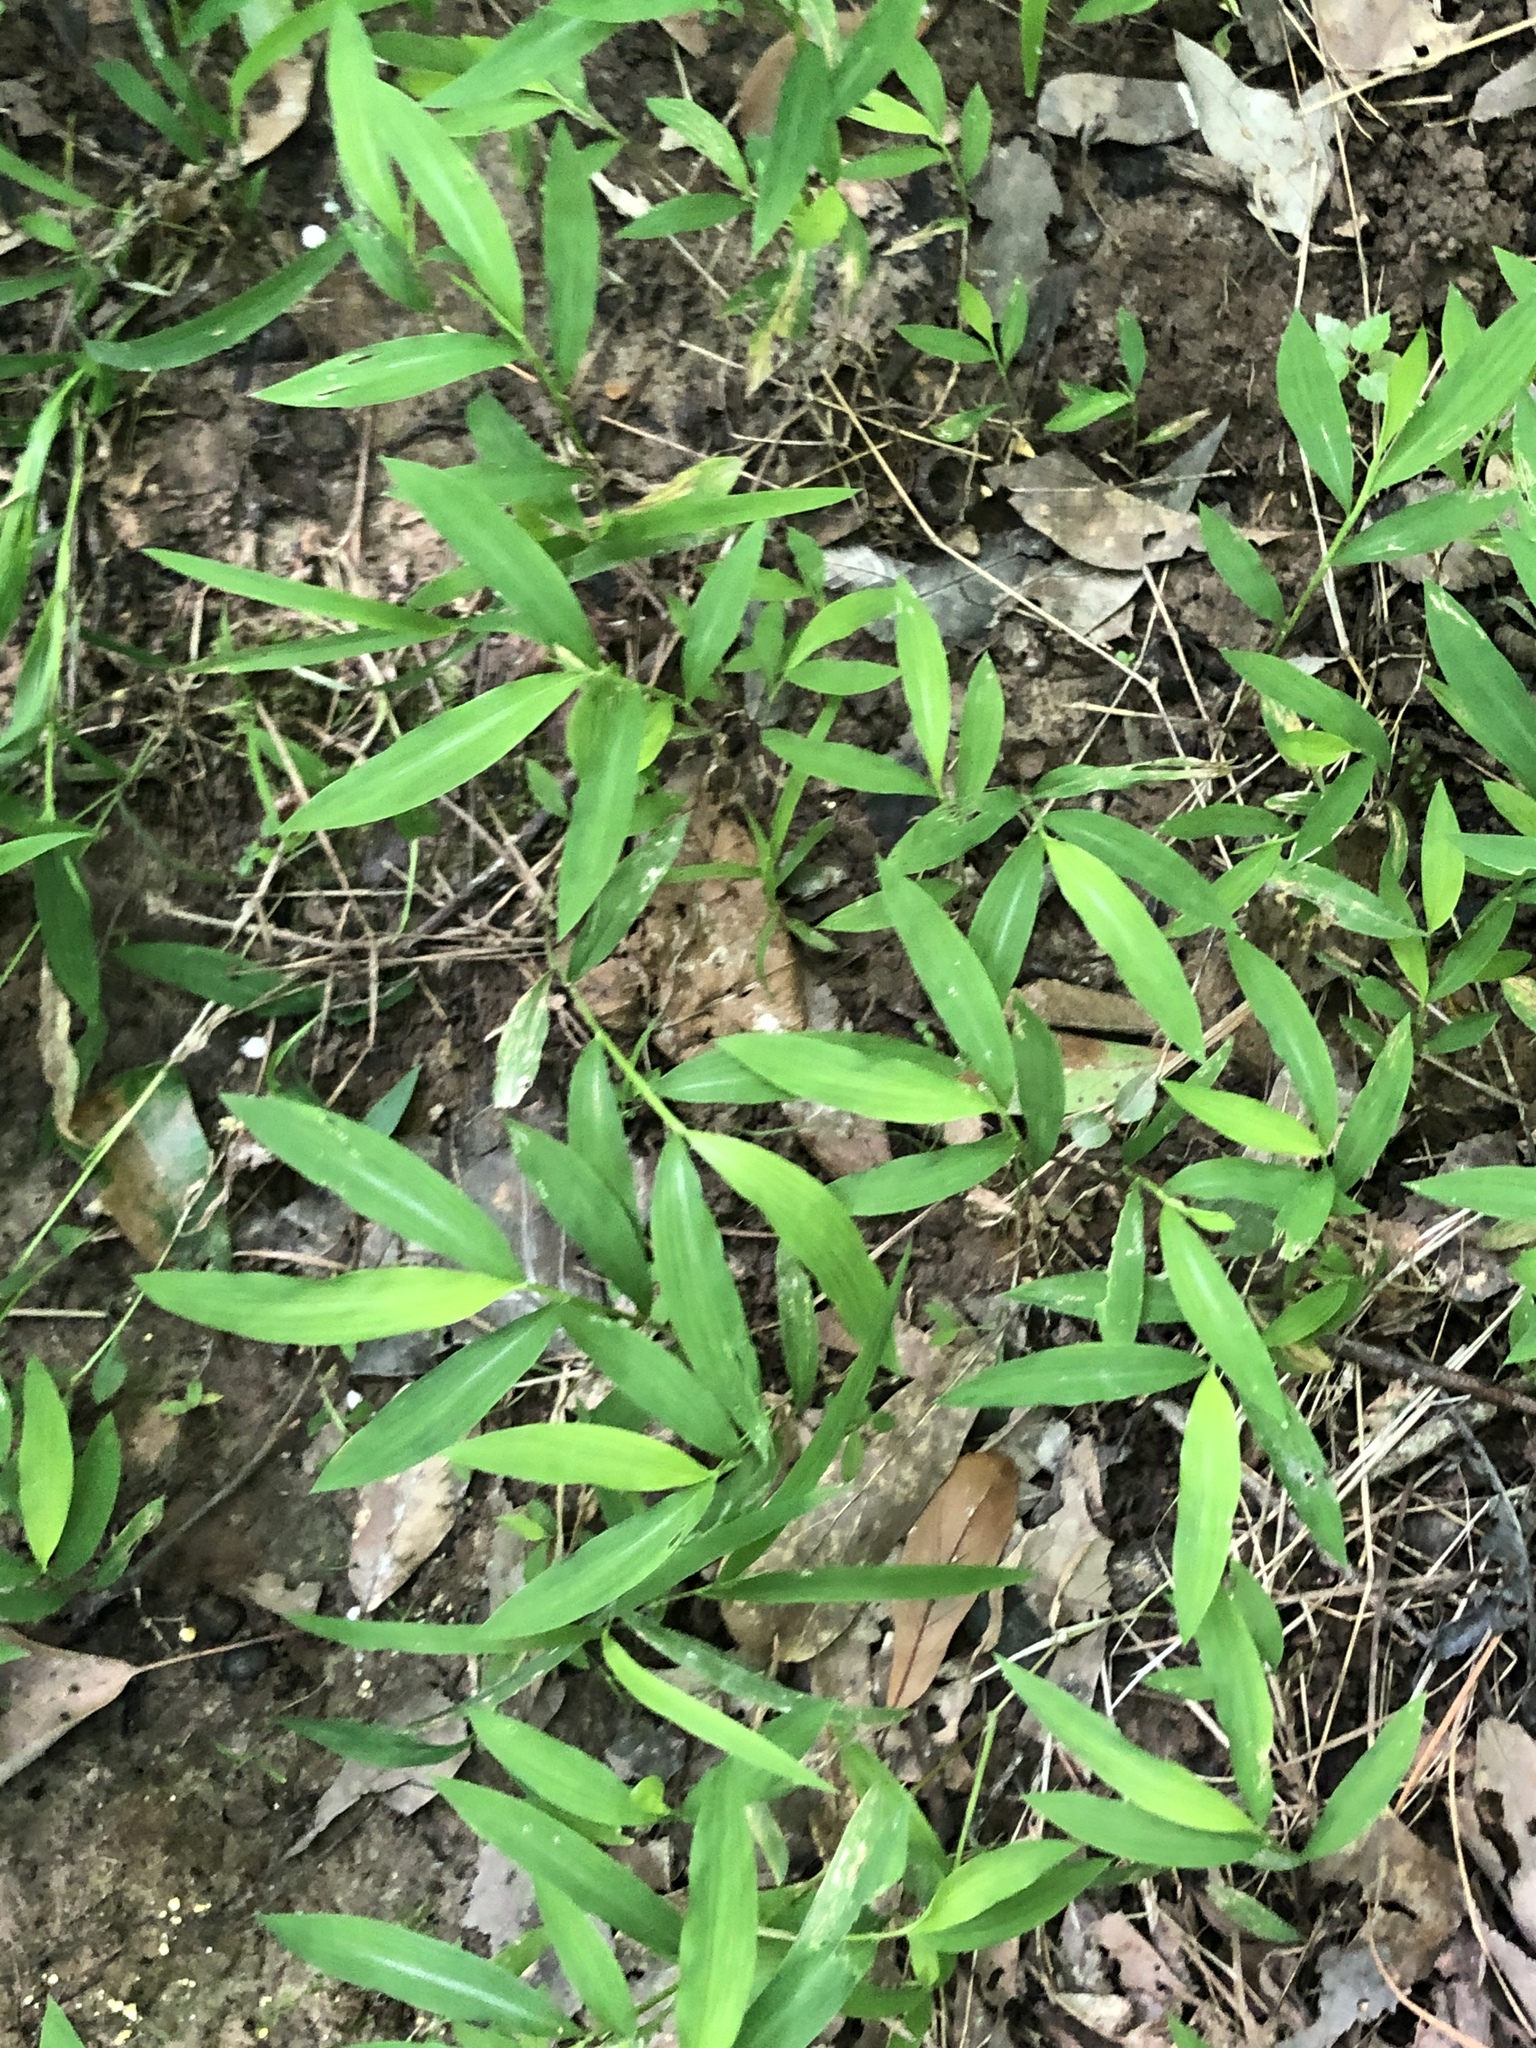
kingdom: Plantae
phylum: Tracheophyta
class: Liliopsida
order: Poales
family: Poaceae
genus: Microstegium
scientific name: Microstegium vimineum
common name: Japanese stiltgrass
